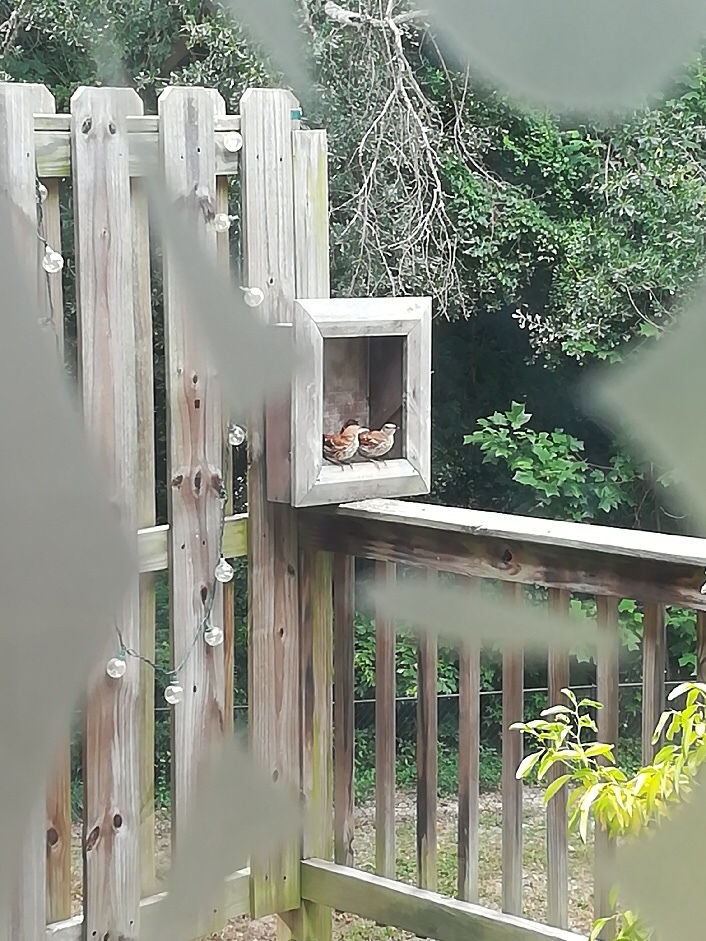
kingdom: Animalia
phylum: Chordata
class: Aves
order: Passeriformes
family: Mimidae
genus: Toxostoma
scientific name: Toxostoma rufum
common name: Brown thrasher
